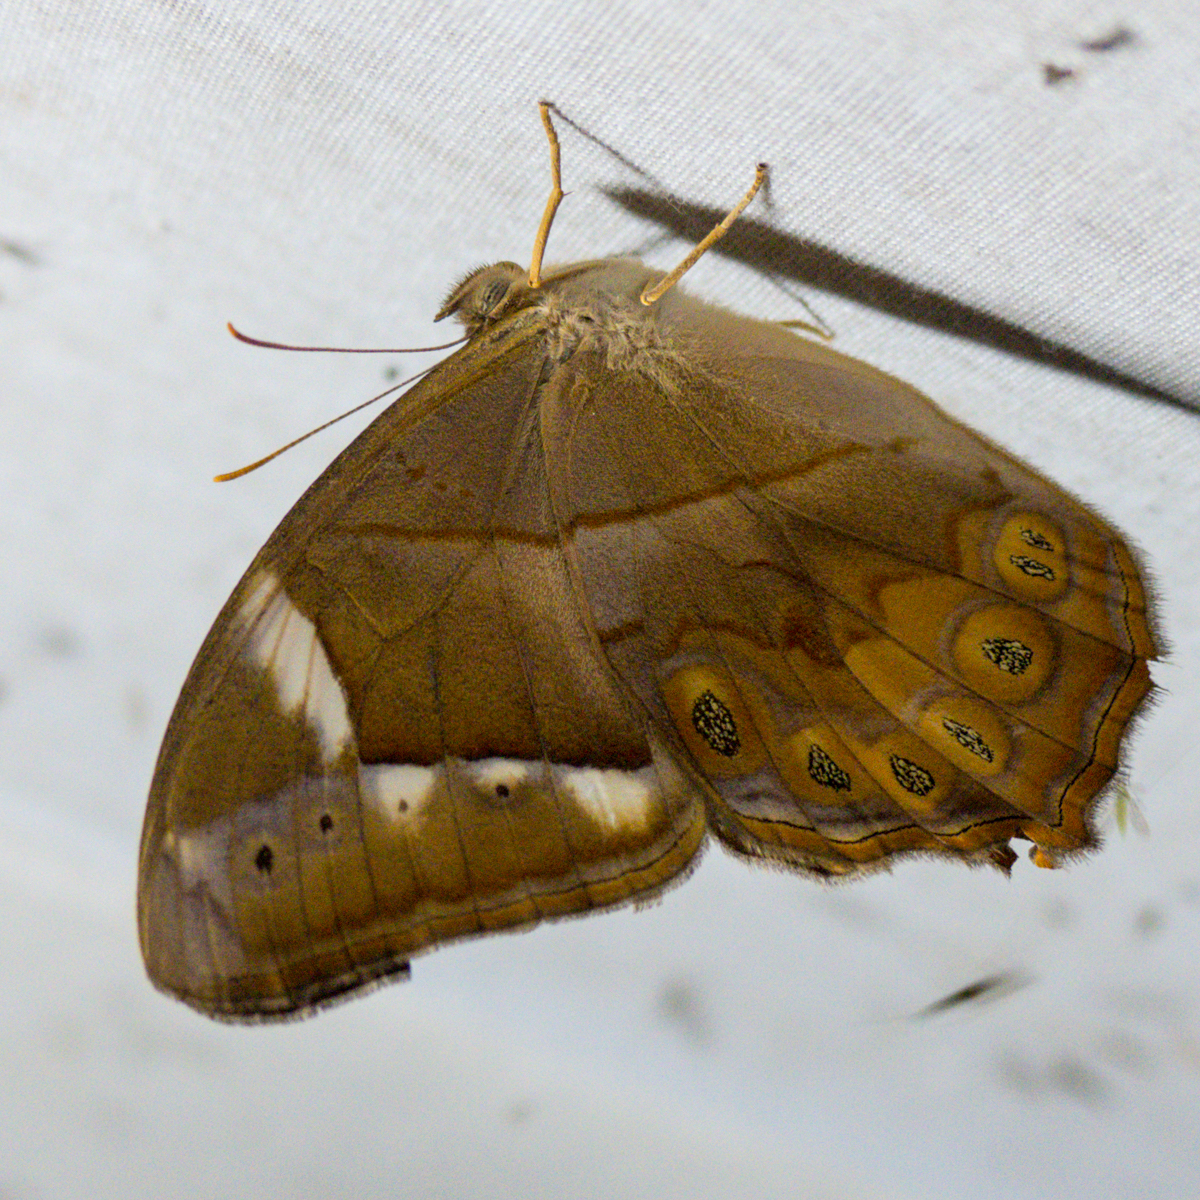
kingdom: Animalia
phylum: Arthropoda
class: Insecta
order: Lepidoptera
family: Nymphalidae
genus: Lethe
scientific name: Lethe minerva
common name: Banded red forester
